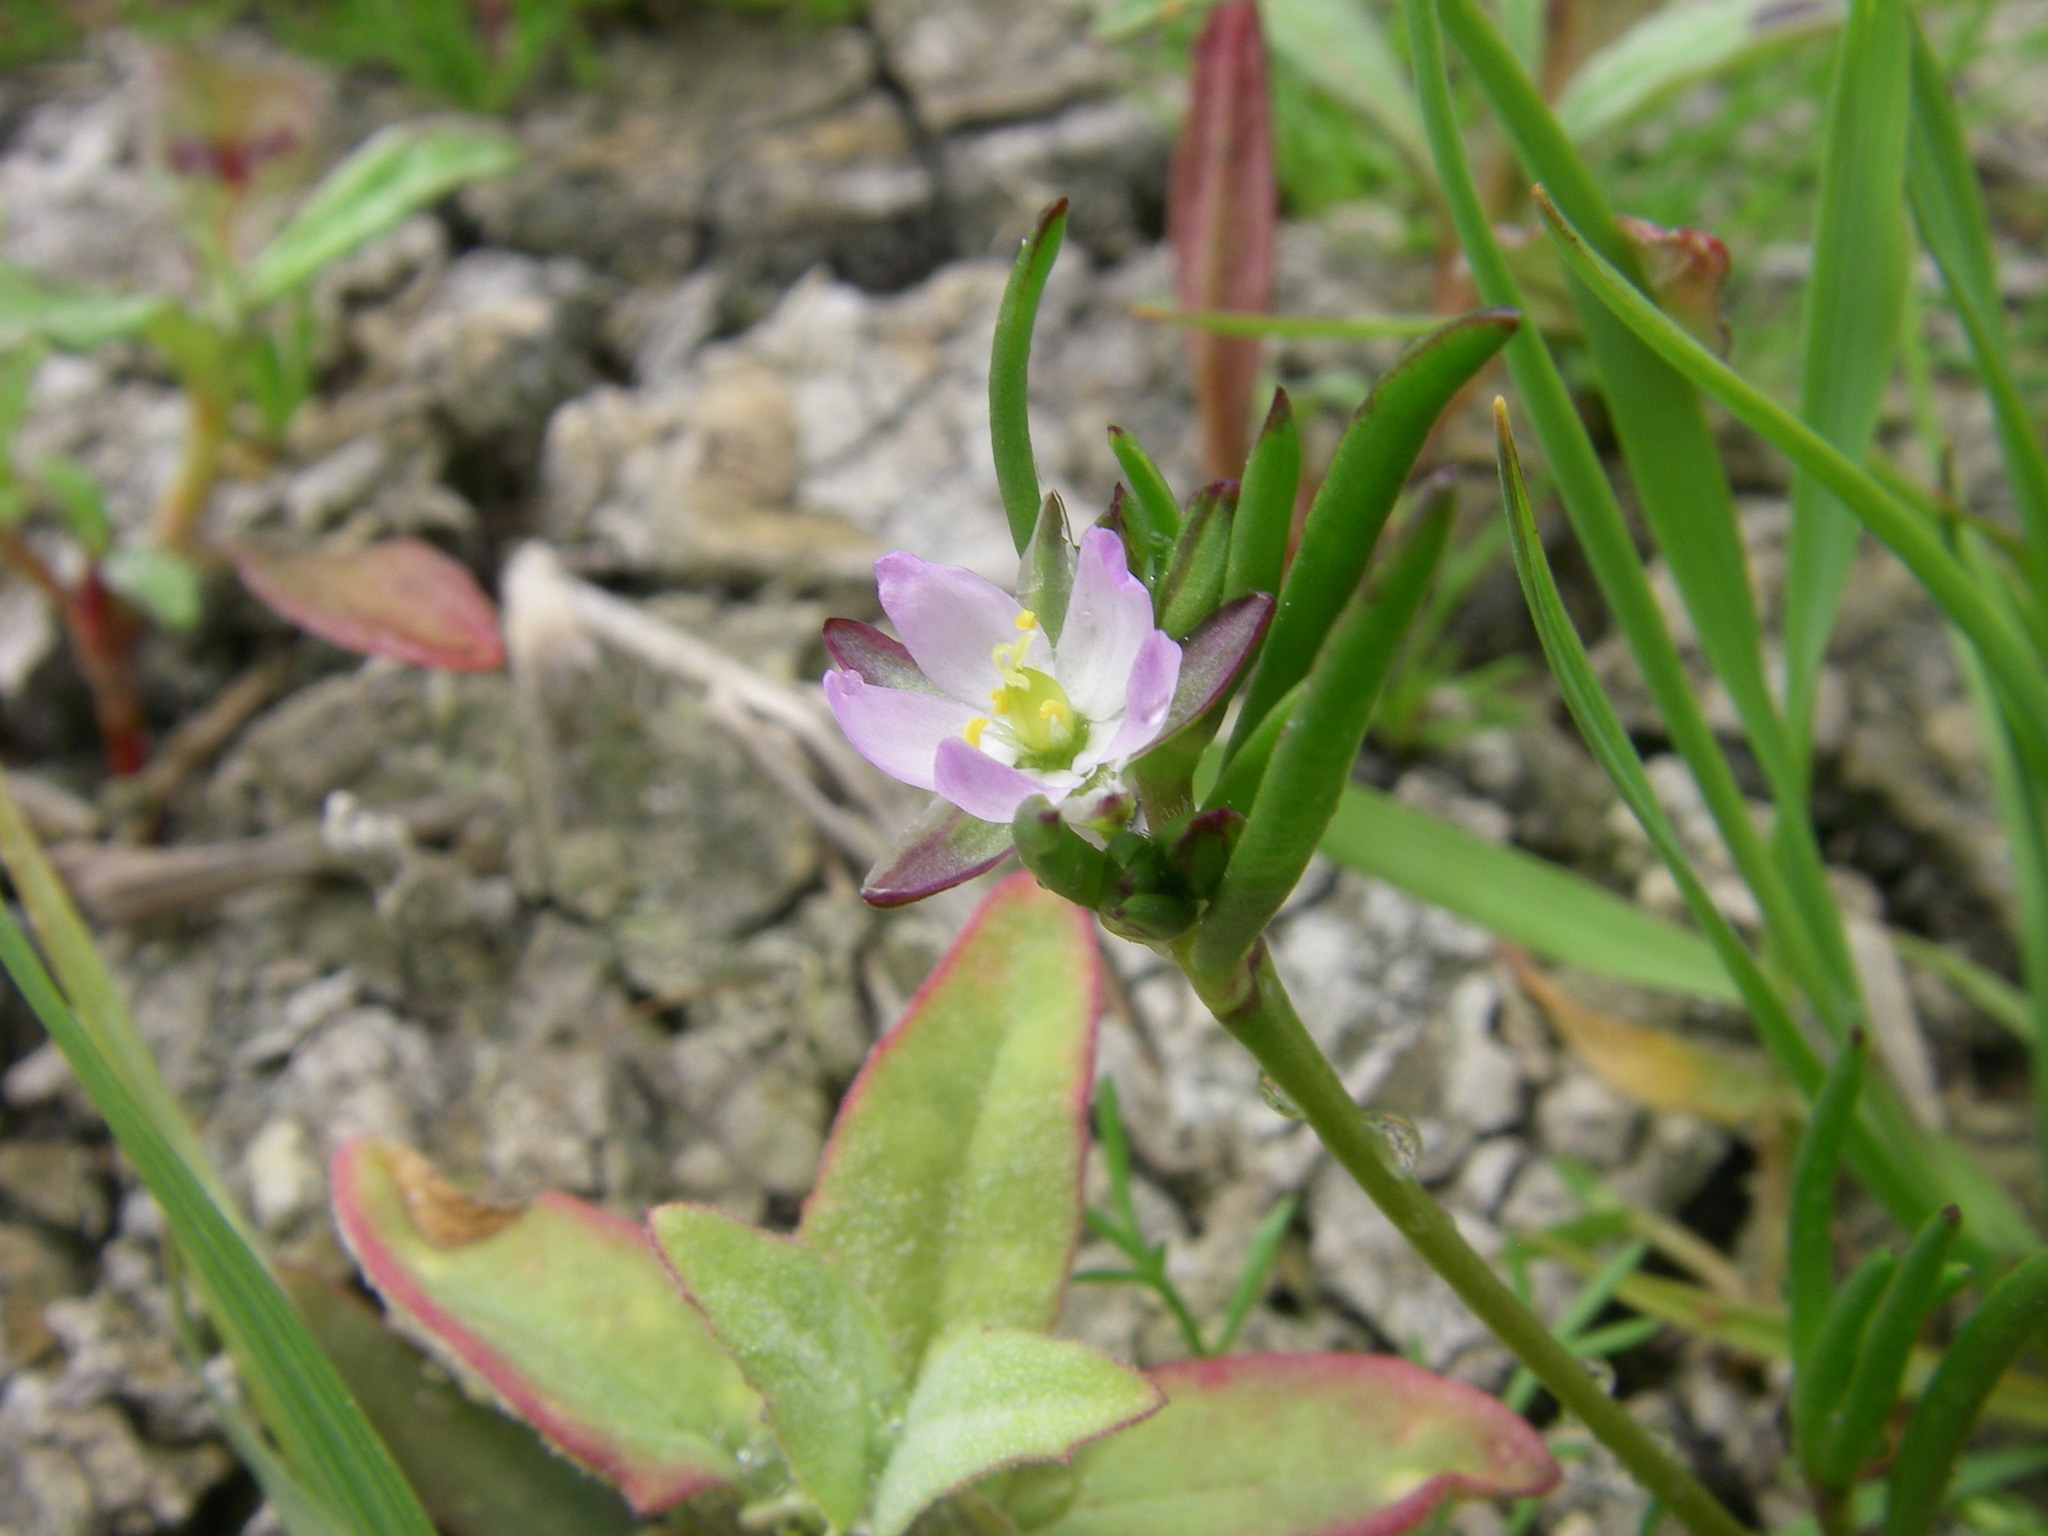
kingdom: Plantae
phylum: Tracheophyta
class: Magnoliopsida
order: Caryophyllales
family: Caryophyllaceae
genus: Spergularia
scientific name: Spergularia marina
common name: Lesser sea-spurrey
